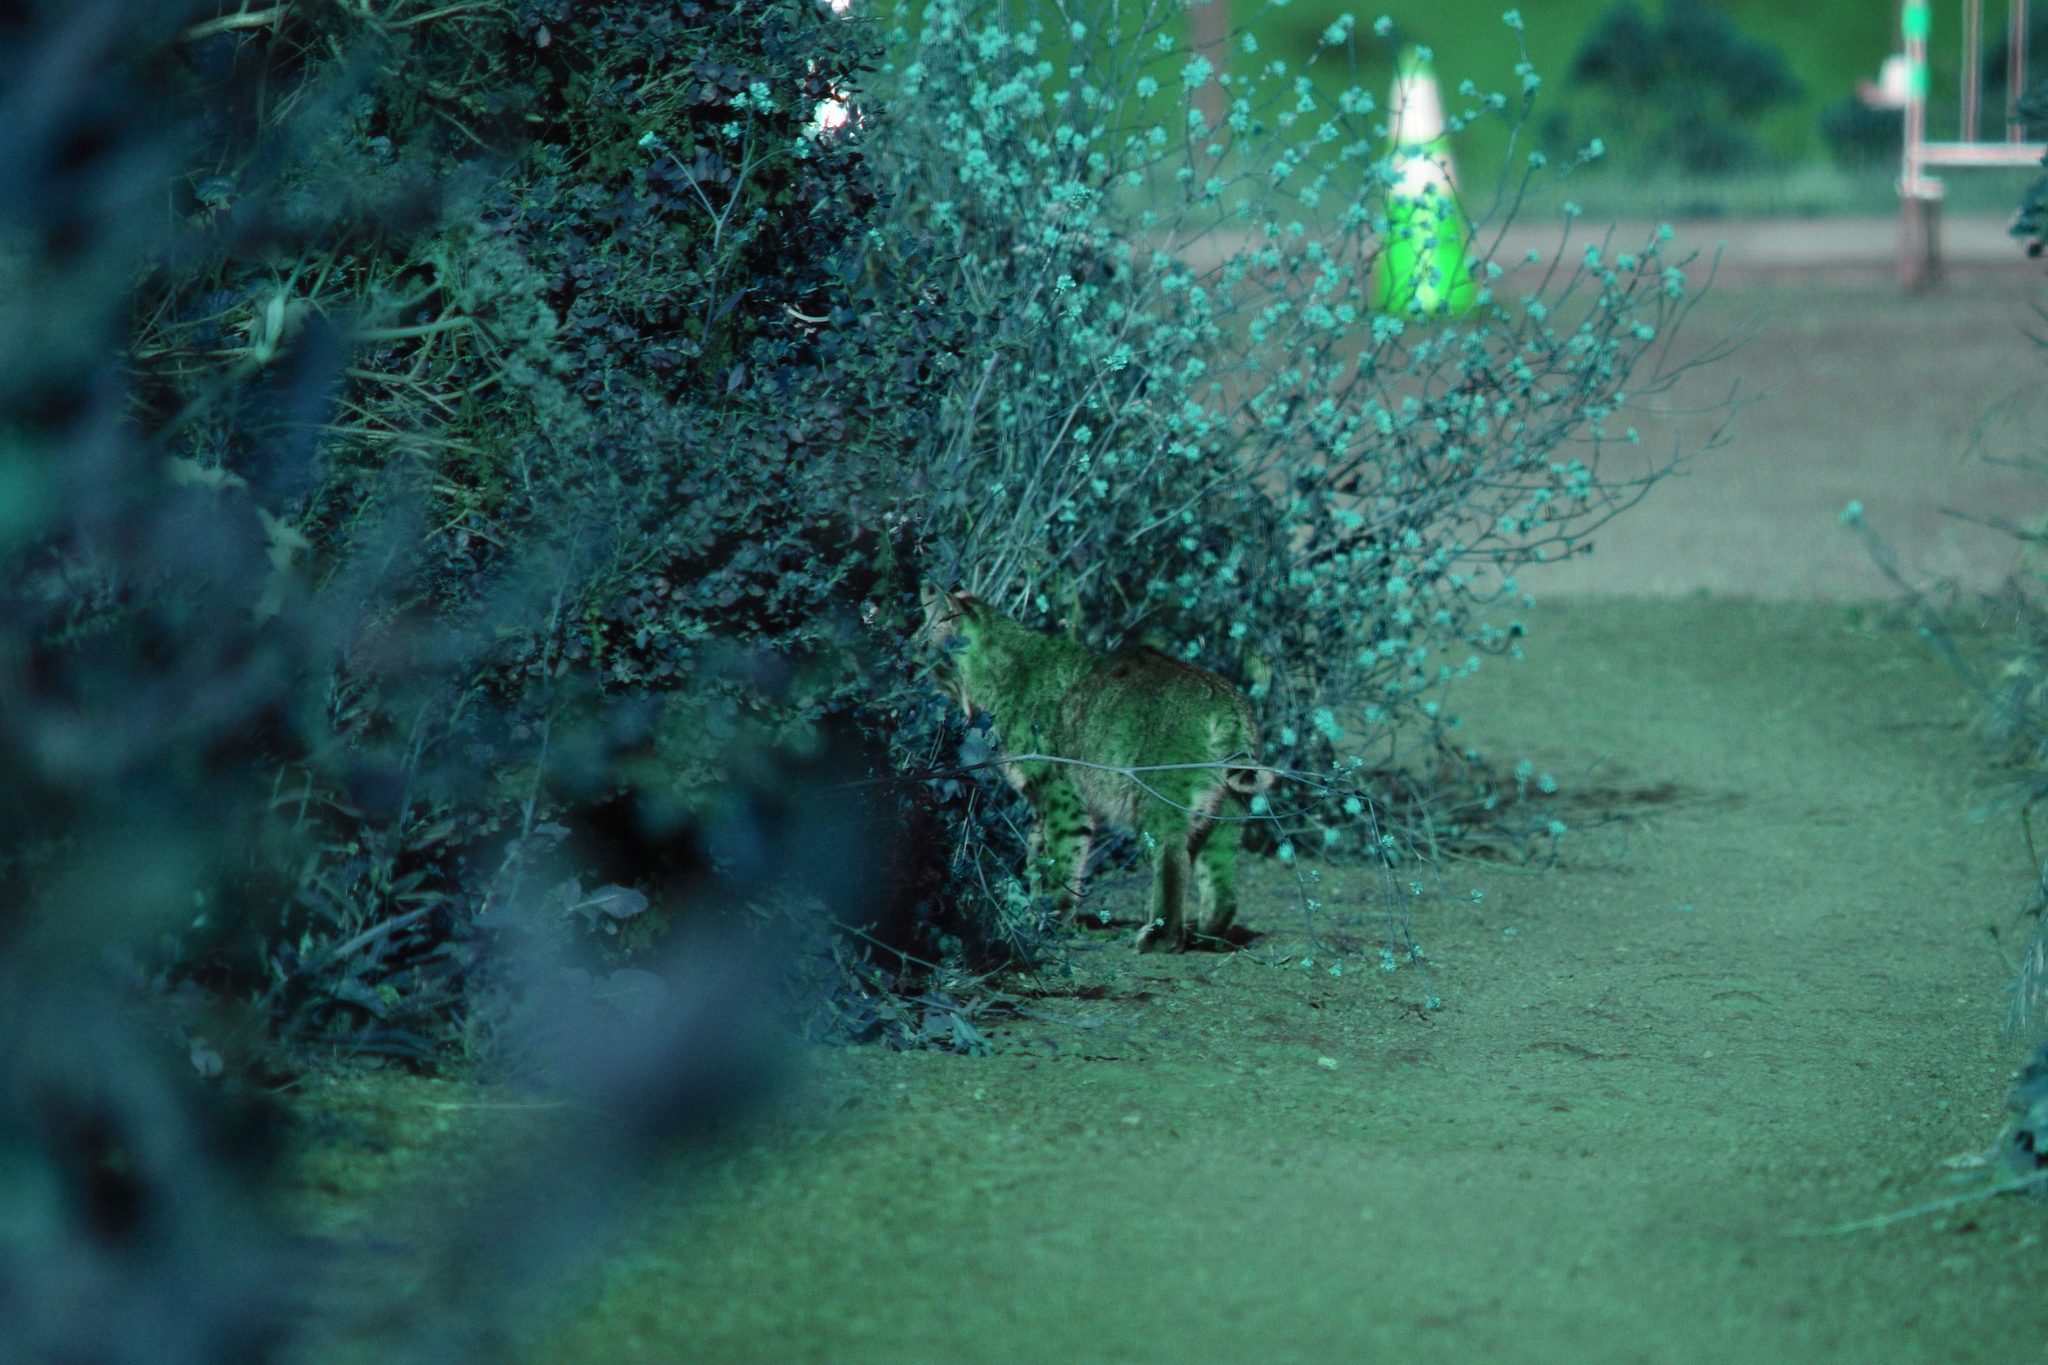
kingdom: Animalia
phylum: Chordata
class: Mammalia
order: Carnivora
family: Felidae
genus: Lynx
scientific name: Lynx rufus
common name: Bobcat
